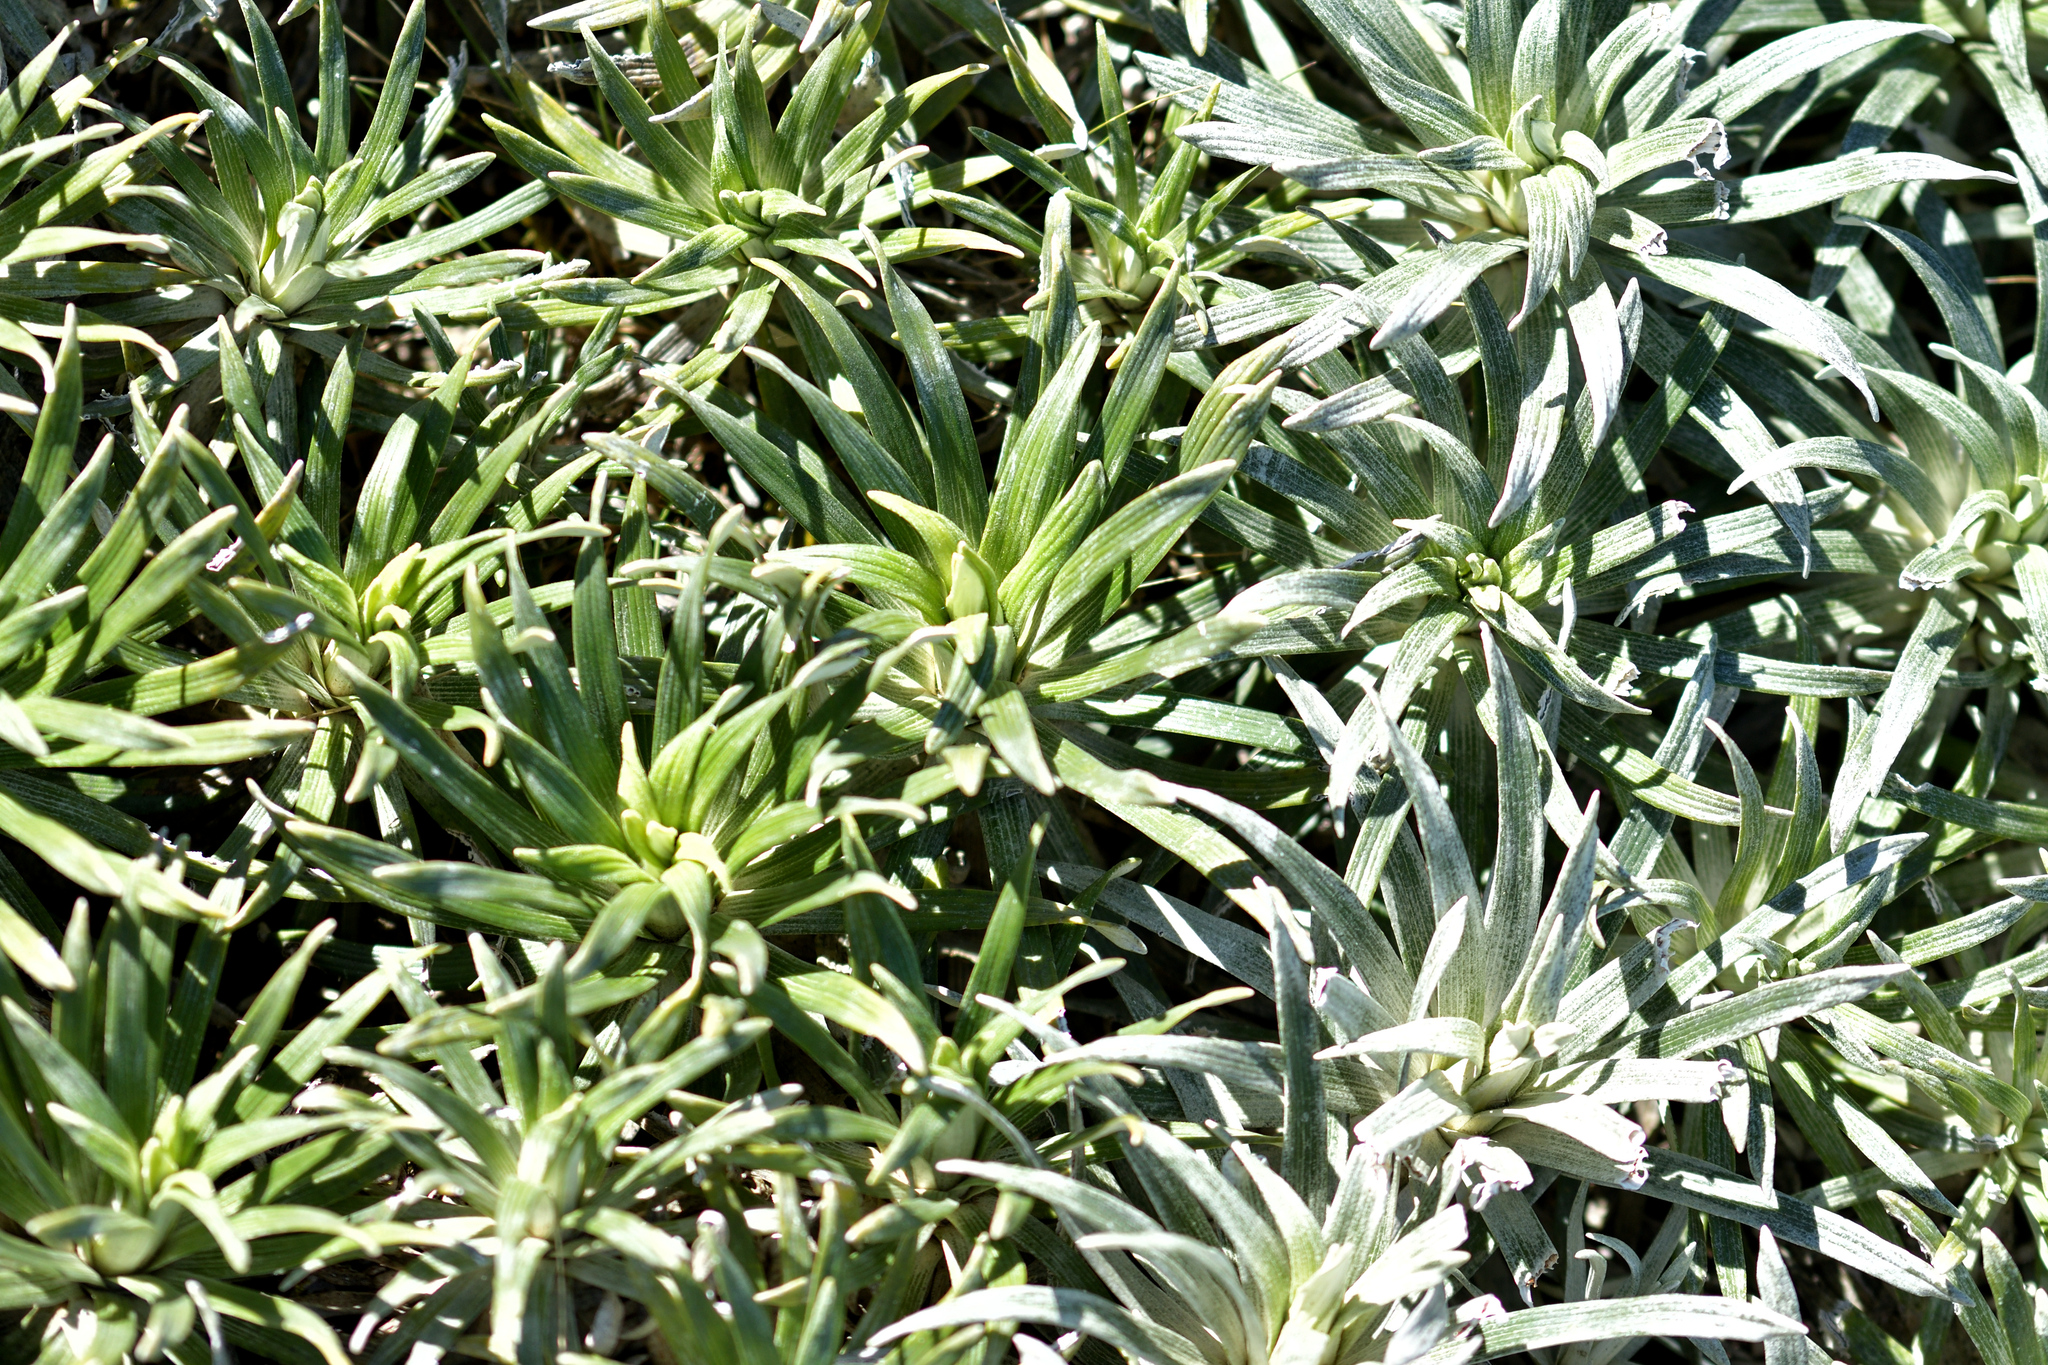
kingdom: Plantae
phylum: Tracheophyta
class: Magnoliopsida
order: Asterales
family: Asteraceae
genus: Celmisia
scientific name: Celmisia viscosa
